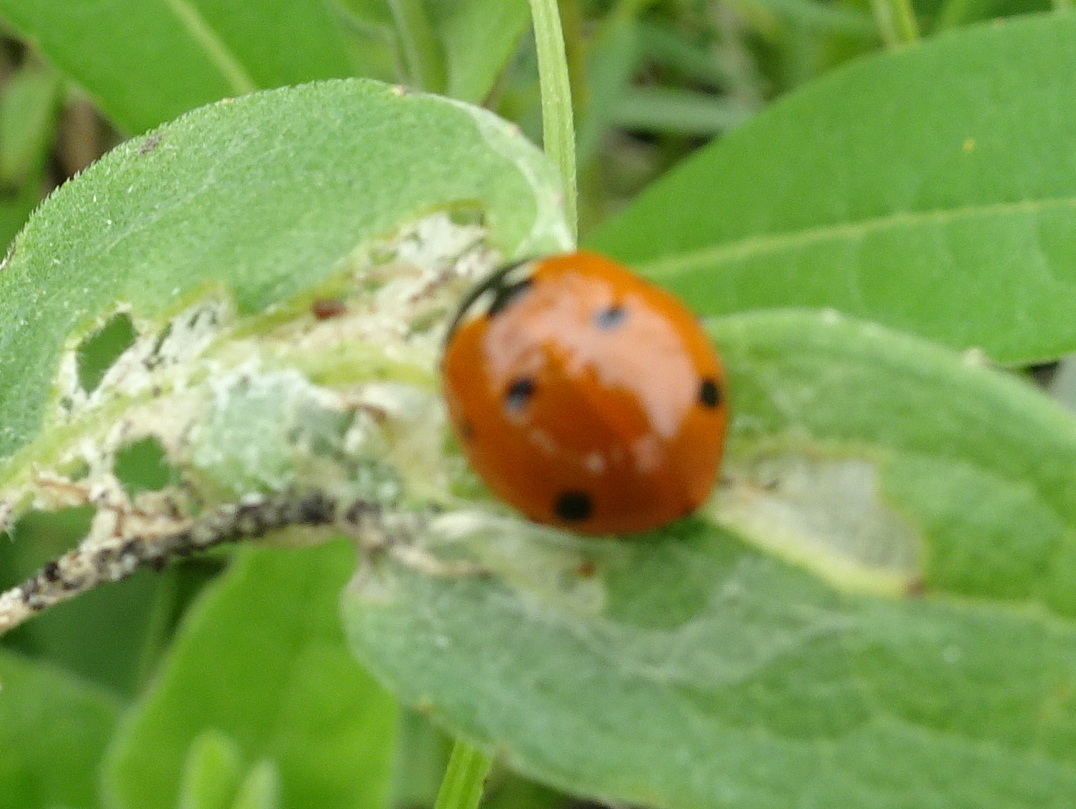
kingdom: Animalia
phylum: Arthropoda
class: Insecta
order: Coleoptera
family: Coccinellidae
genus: Coccinella
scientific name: Coccinella septempunctata
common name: Sevenspotted lady beetle
